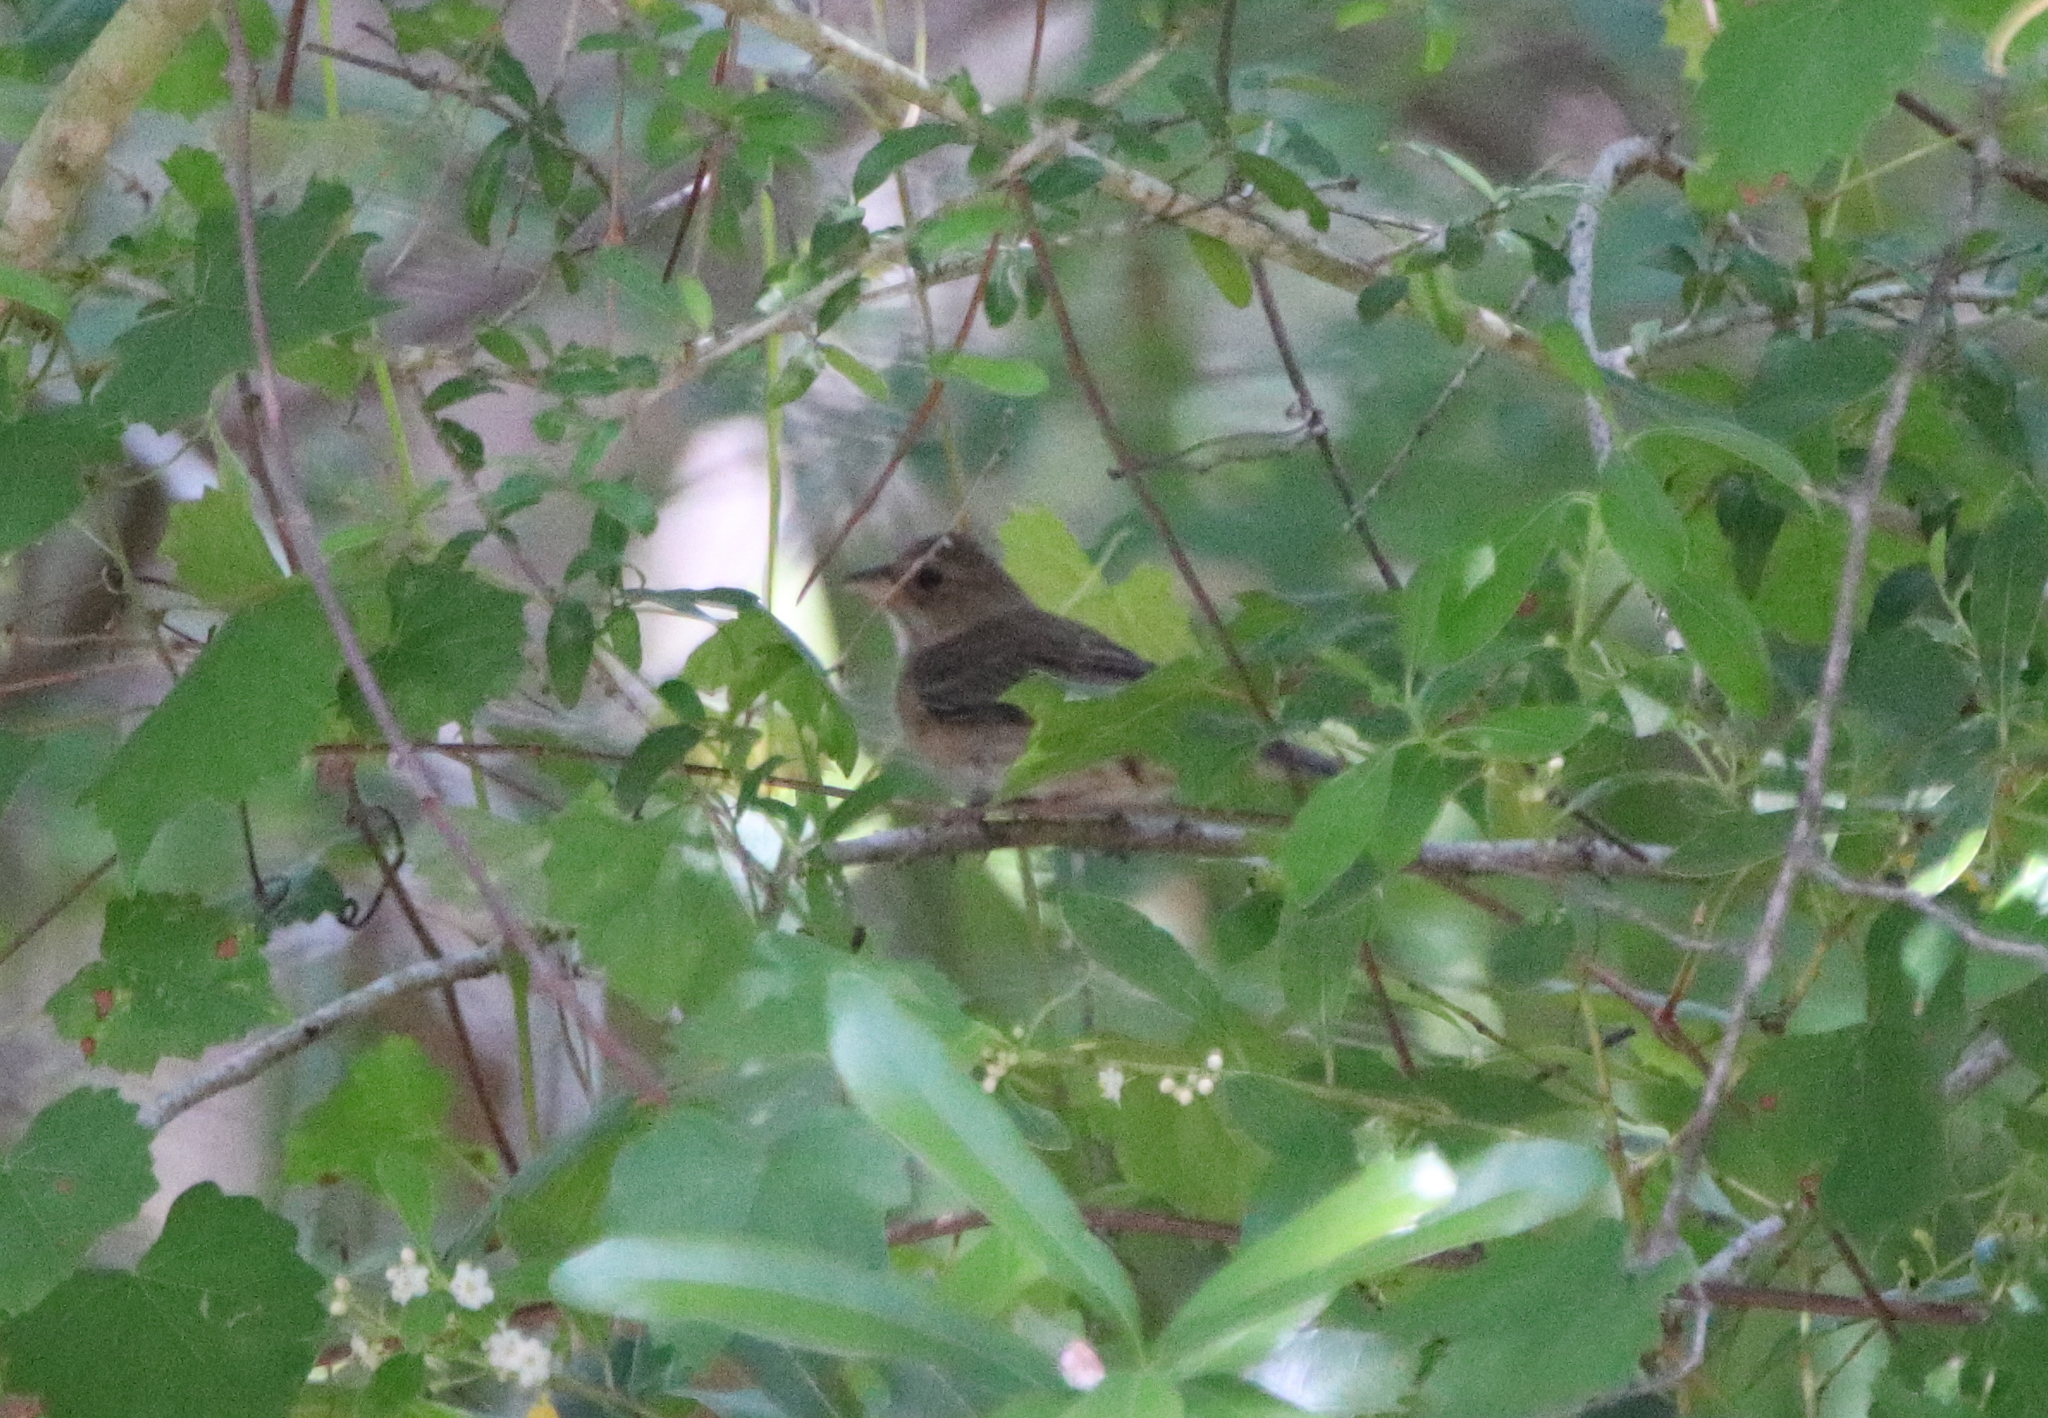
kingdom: Animalia
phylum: Chordata
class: Aves
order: Passeriformes
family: Cardinalidae
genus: Passerina
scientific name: Passerina cyanea
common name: Indigo bunting
